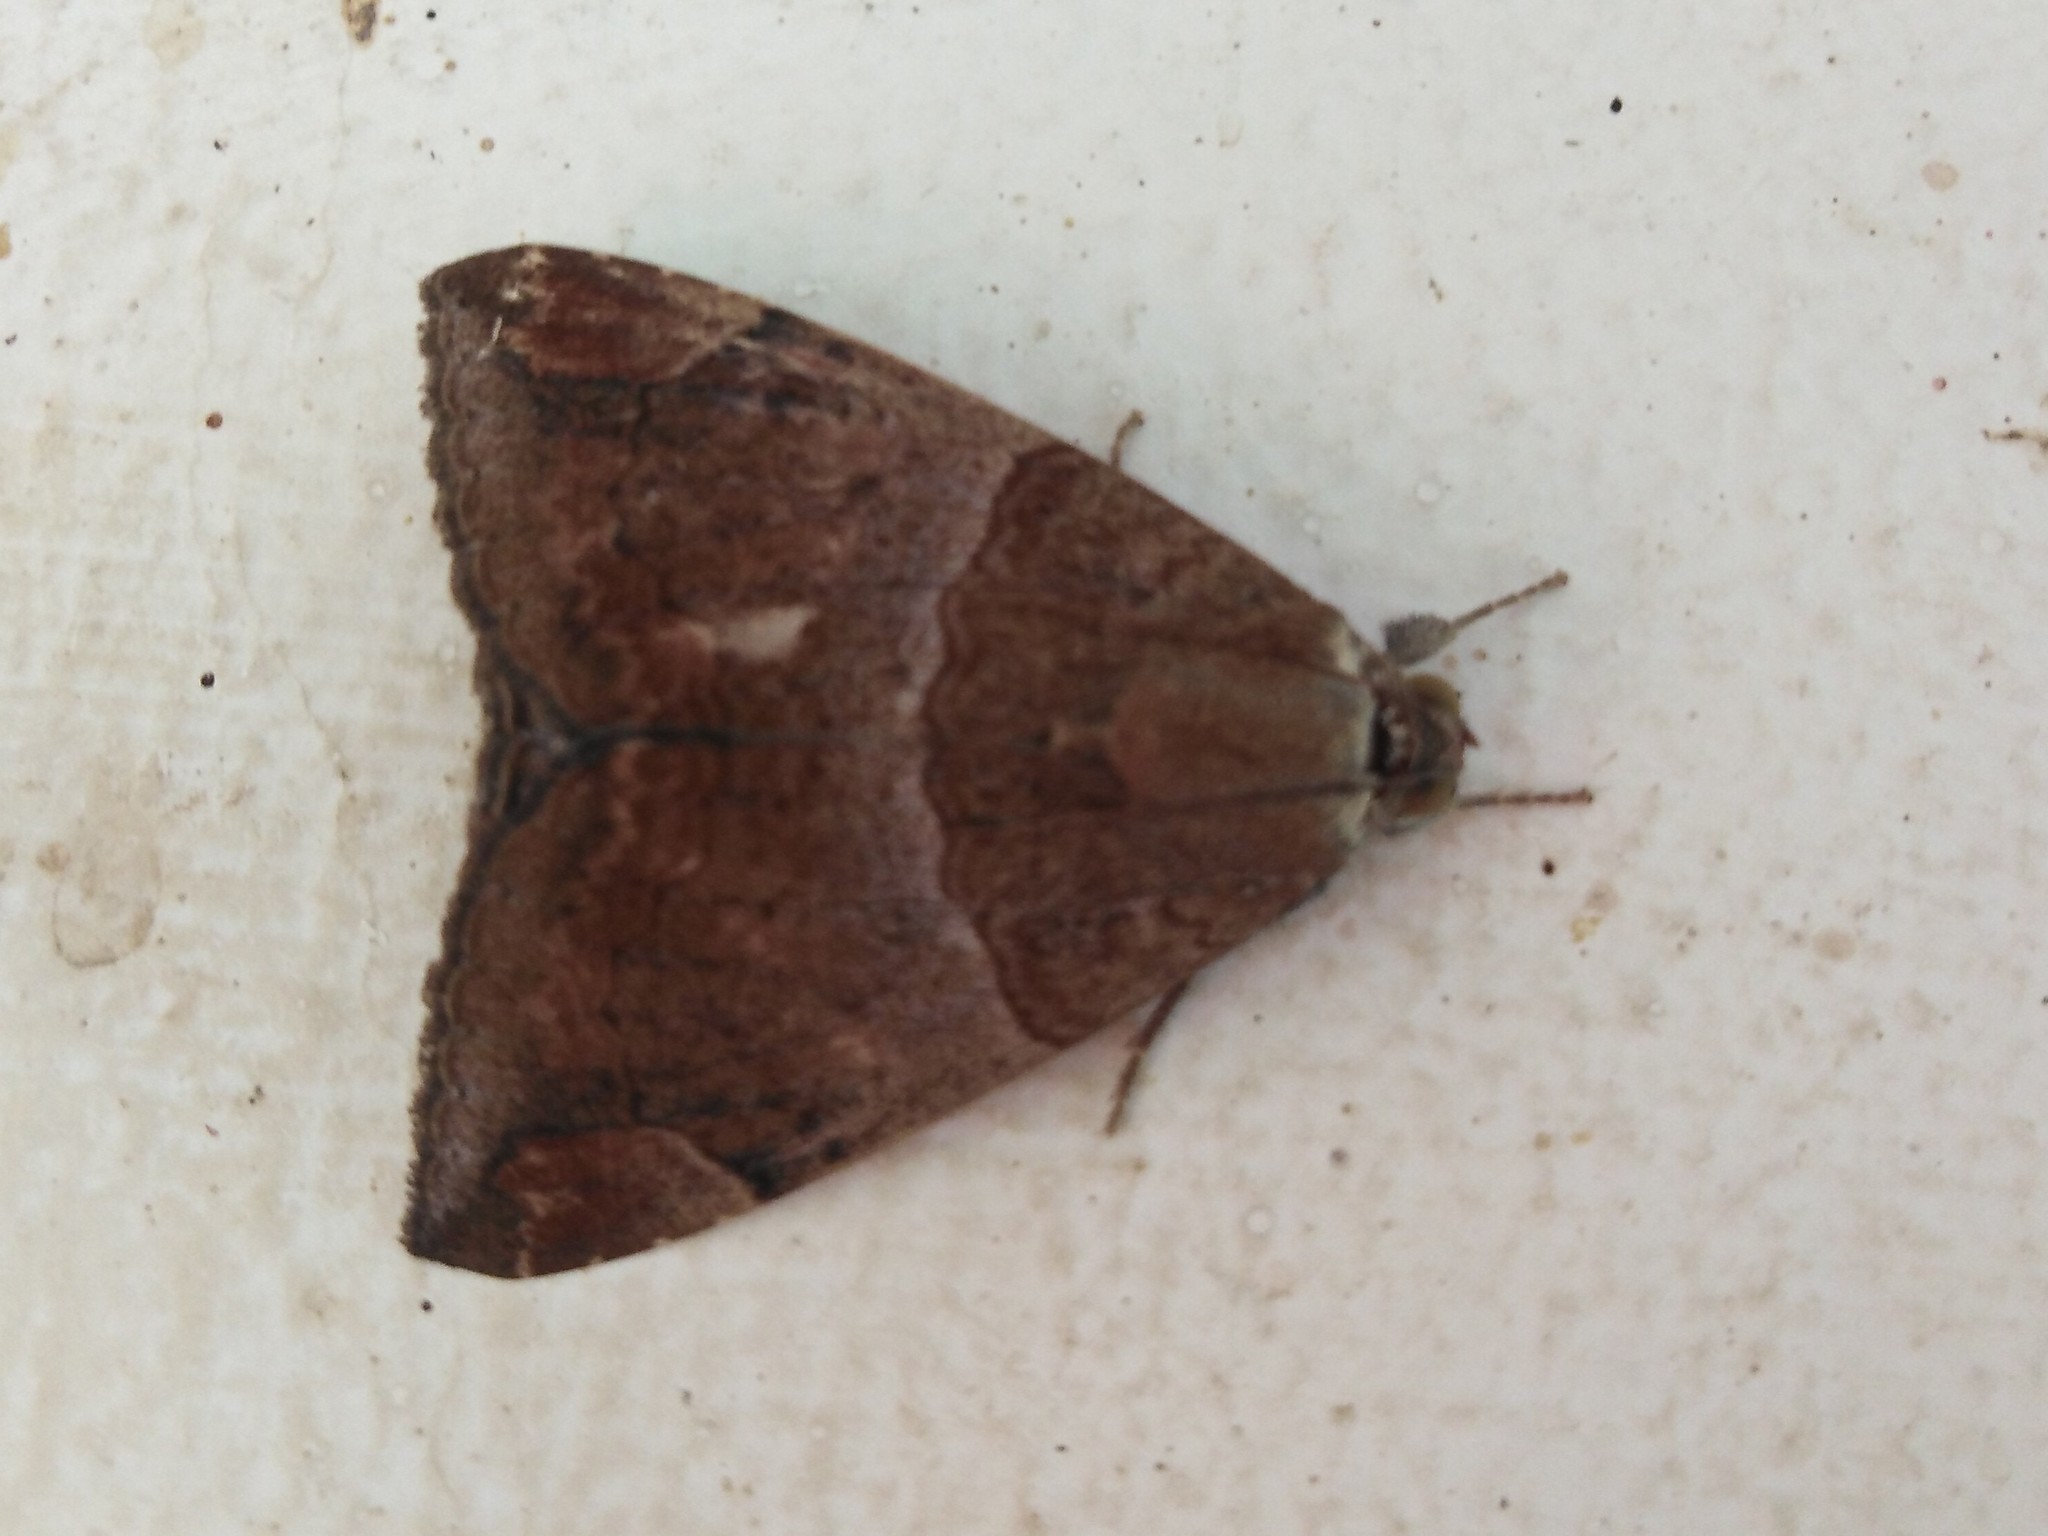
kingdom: Animalia
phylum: Arthropoda
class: Insecta
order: Lepidoptera
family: Erebidae
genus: Achaea
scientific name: Achaea janata
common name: Croton caterpillar
